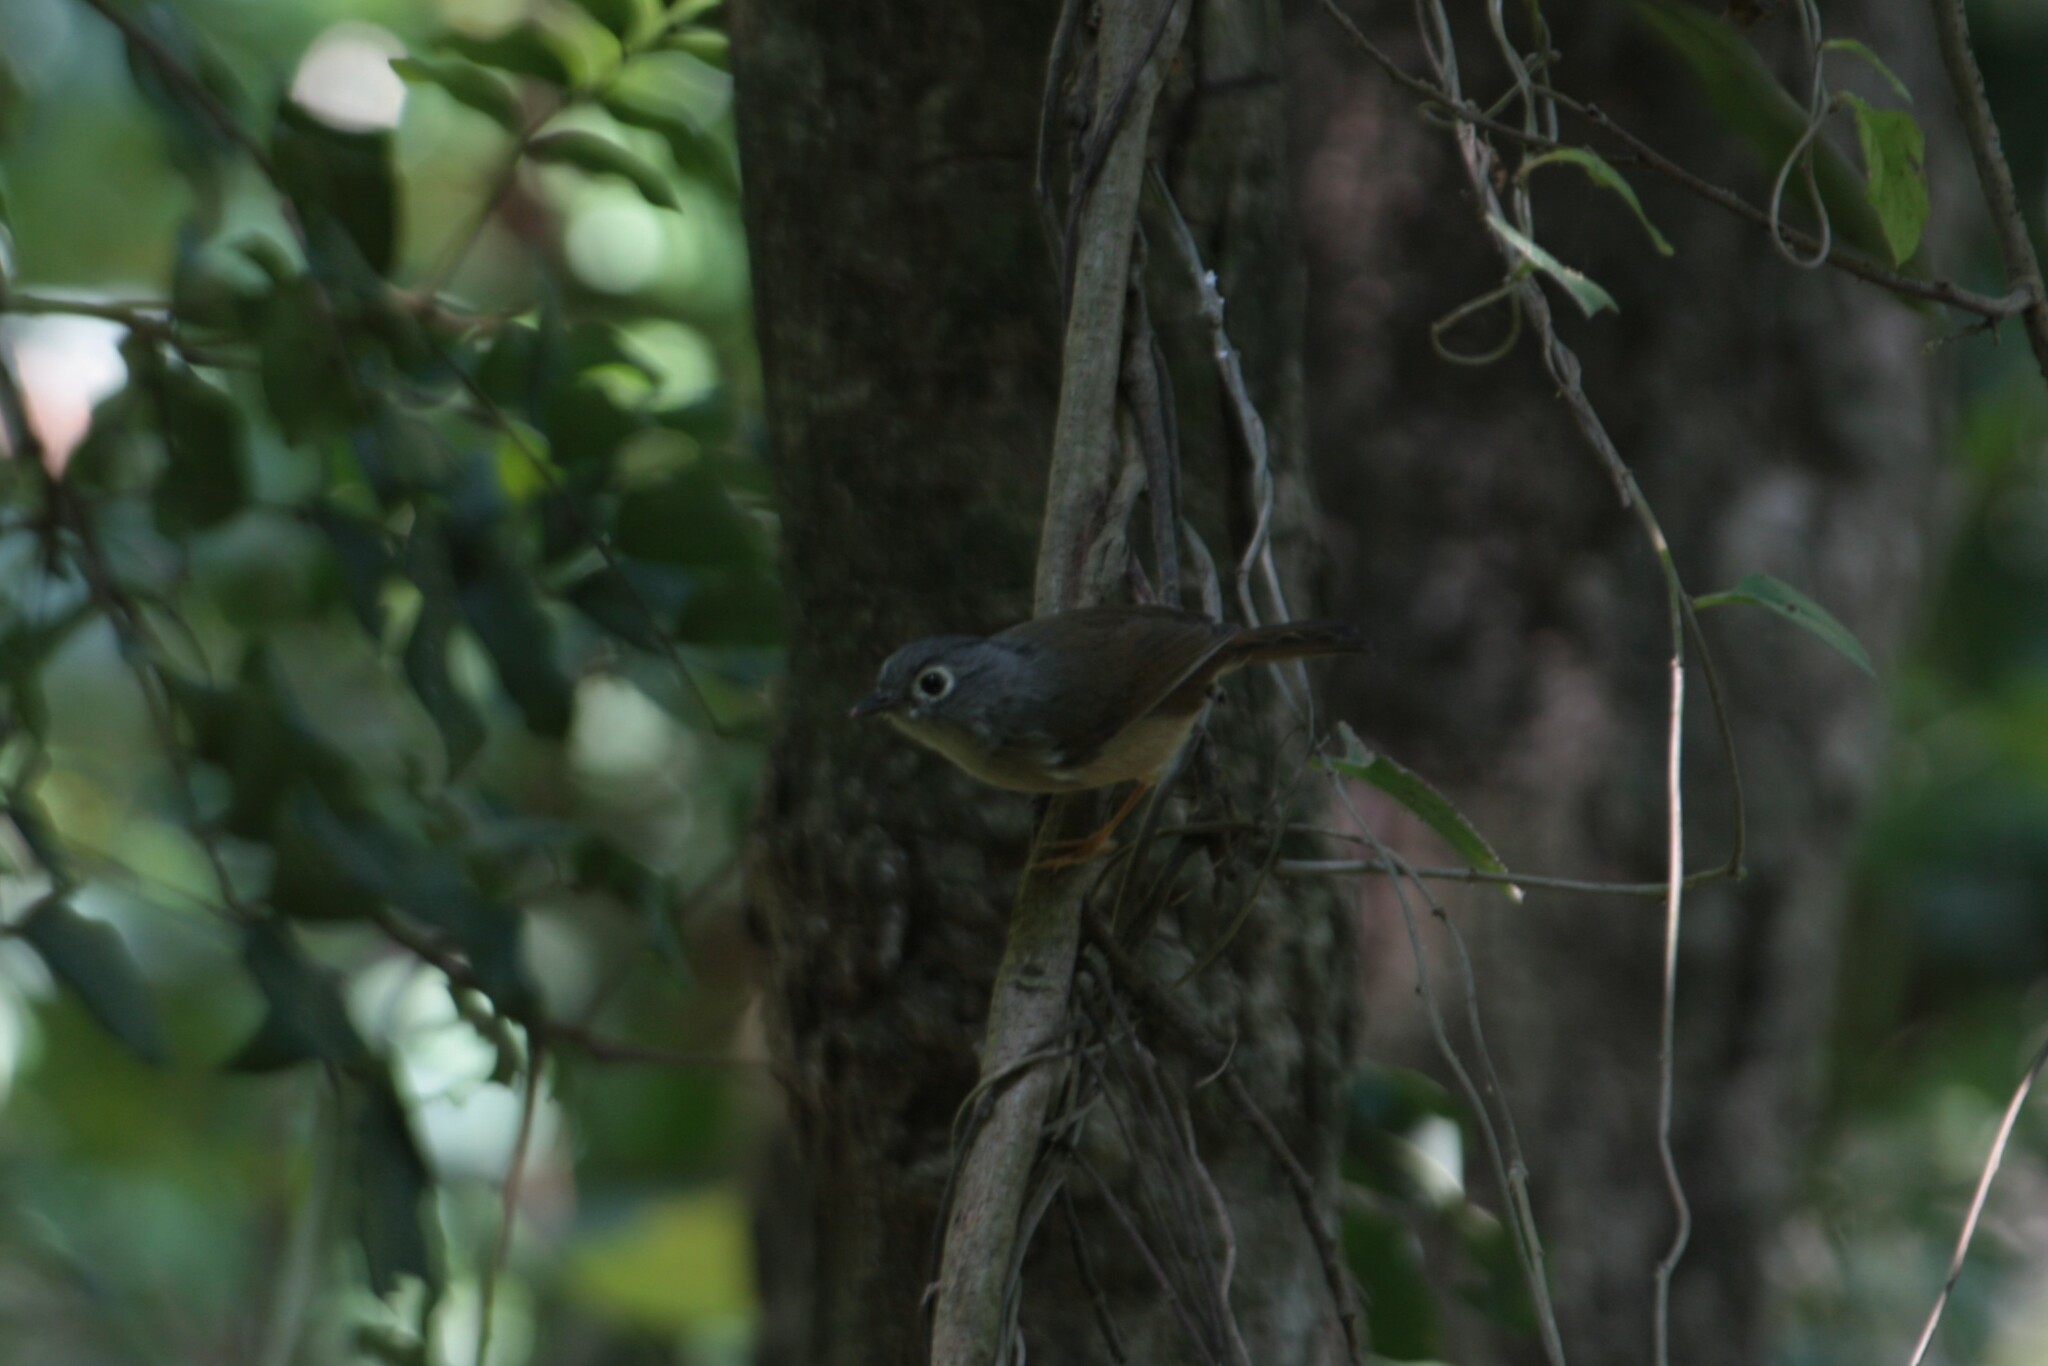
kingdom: Animalia
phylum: Chordata
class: Aves
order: Passeriformes
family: Pellorneidae
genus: Alcippe
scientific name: Alcippe morrisonia
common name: Grey-cheeked fulvetta
